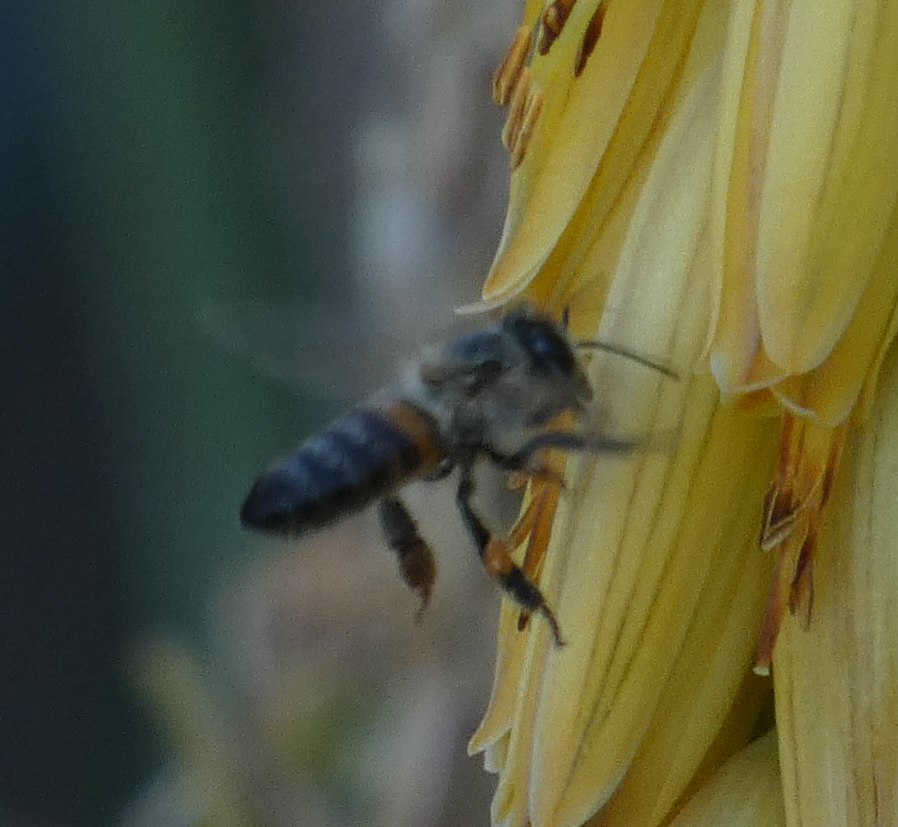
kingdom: Animalia
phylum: Arthropoda
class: Insecta
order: Hymenoptera
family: Apidae
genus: Apis
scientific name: Apis mellifera
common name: Honey bee
